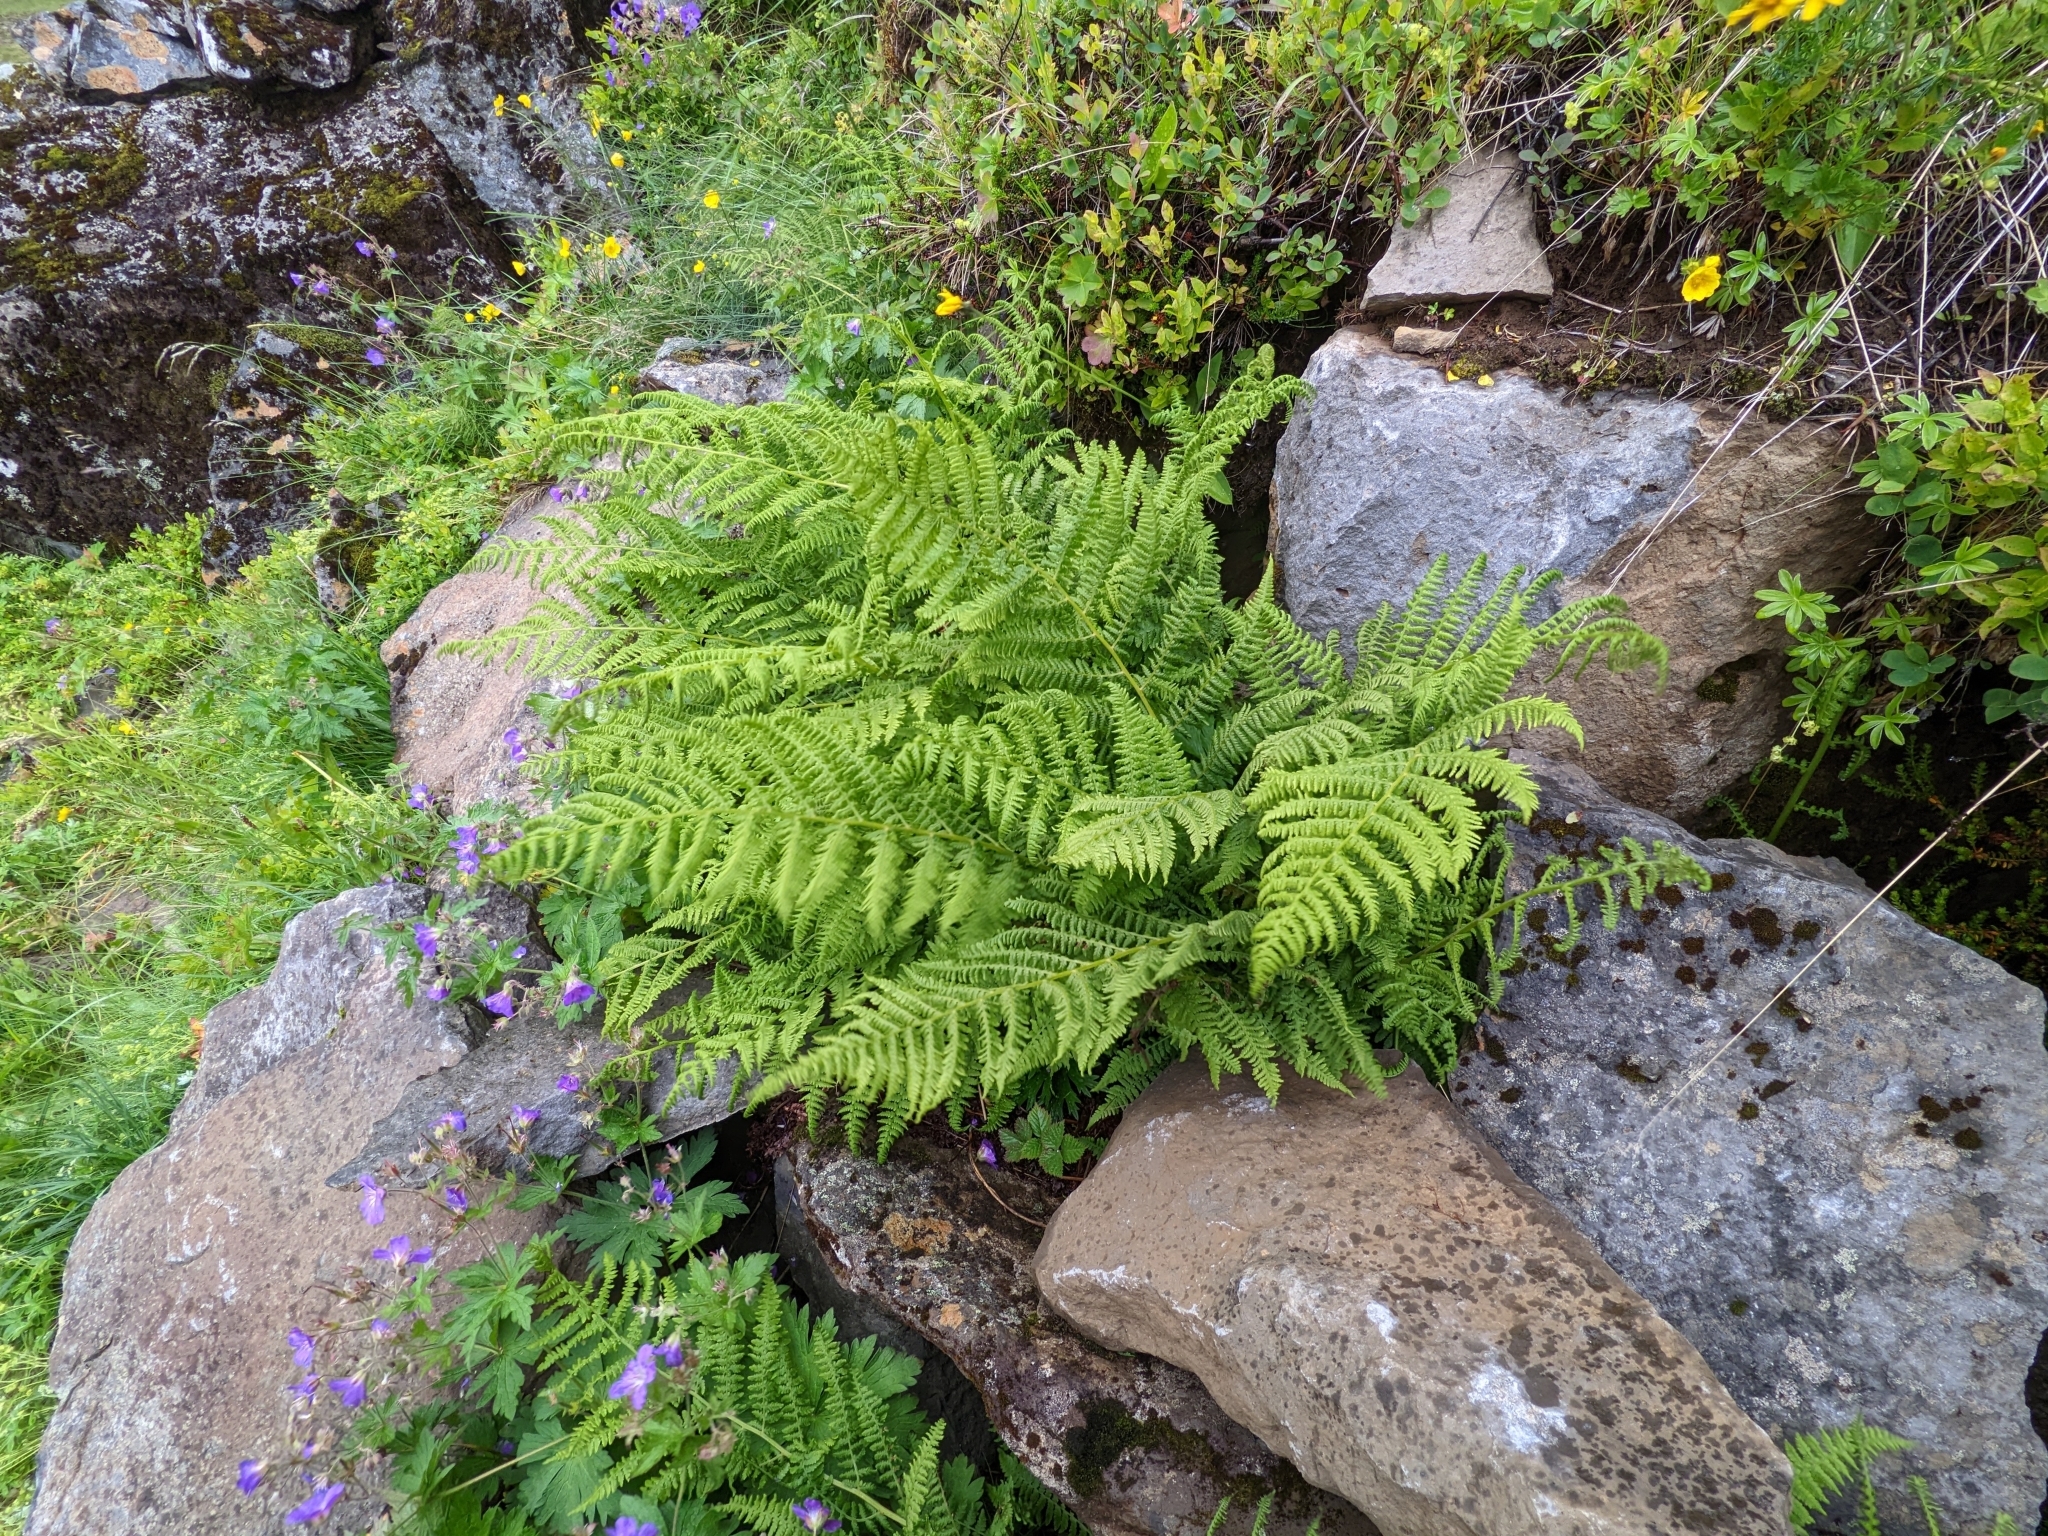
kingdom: Plantae
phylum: Tracheophyta
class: Polypodiopsida
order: Polypodiales
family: Athyriaceae
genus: Athyrium
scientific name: Athyrium filix-femina
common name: Lady fern
